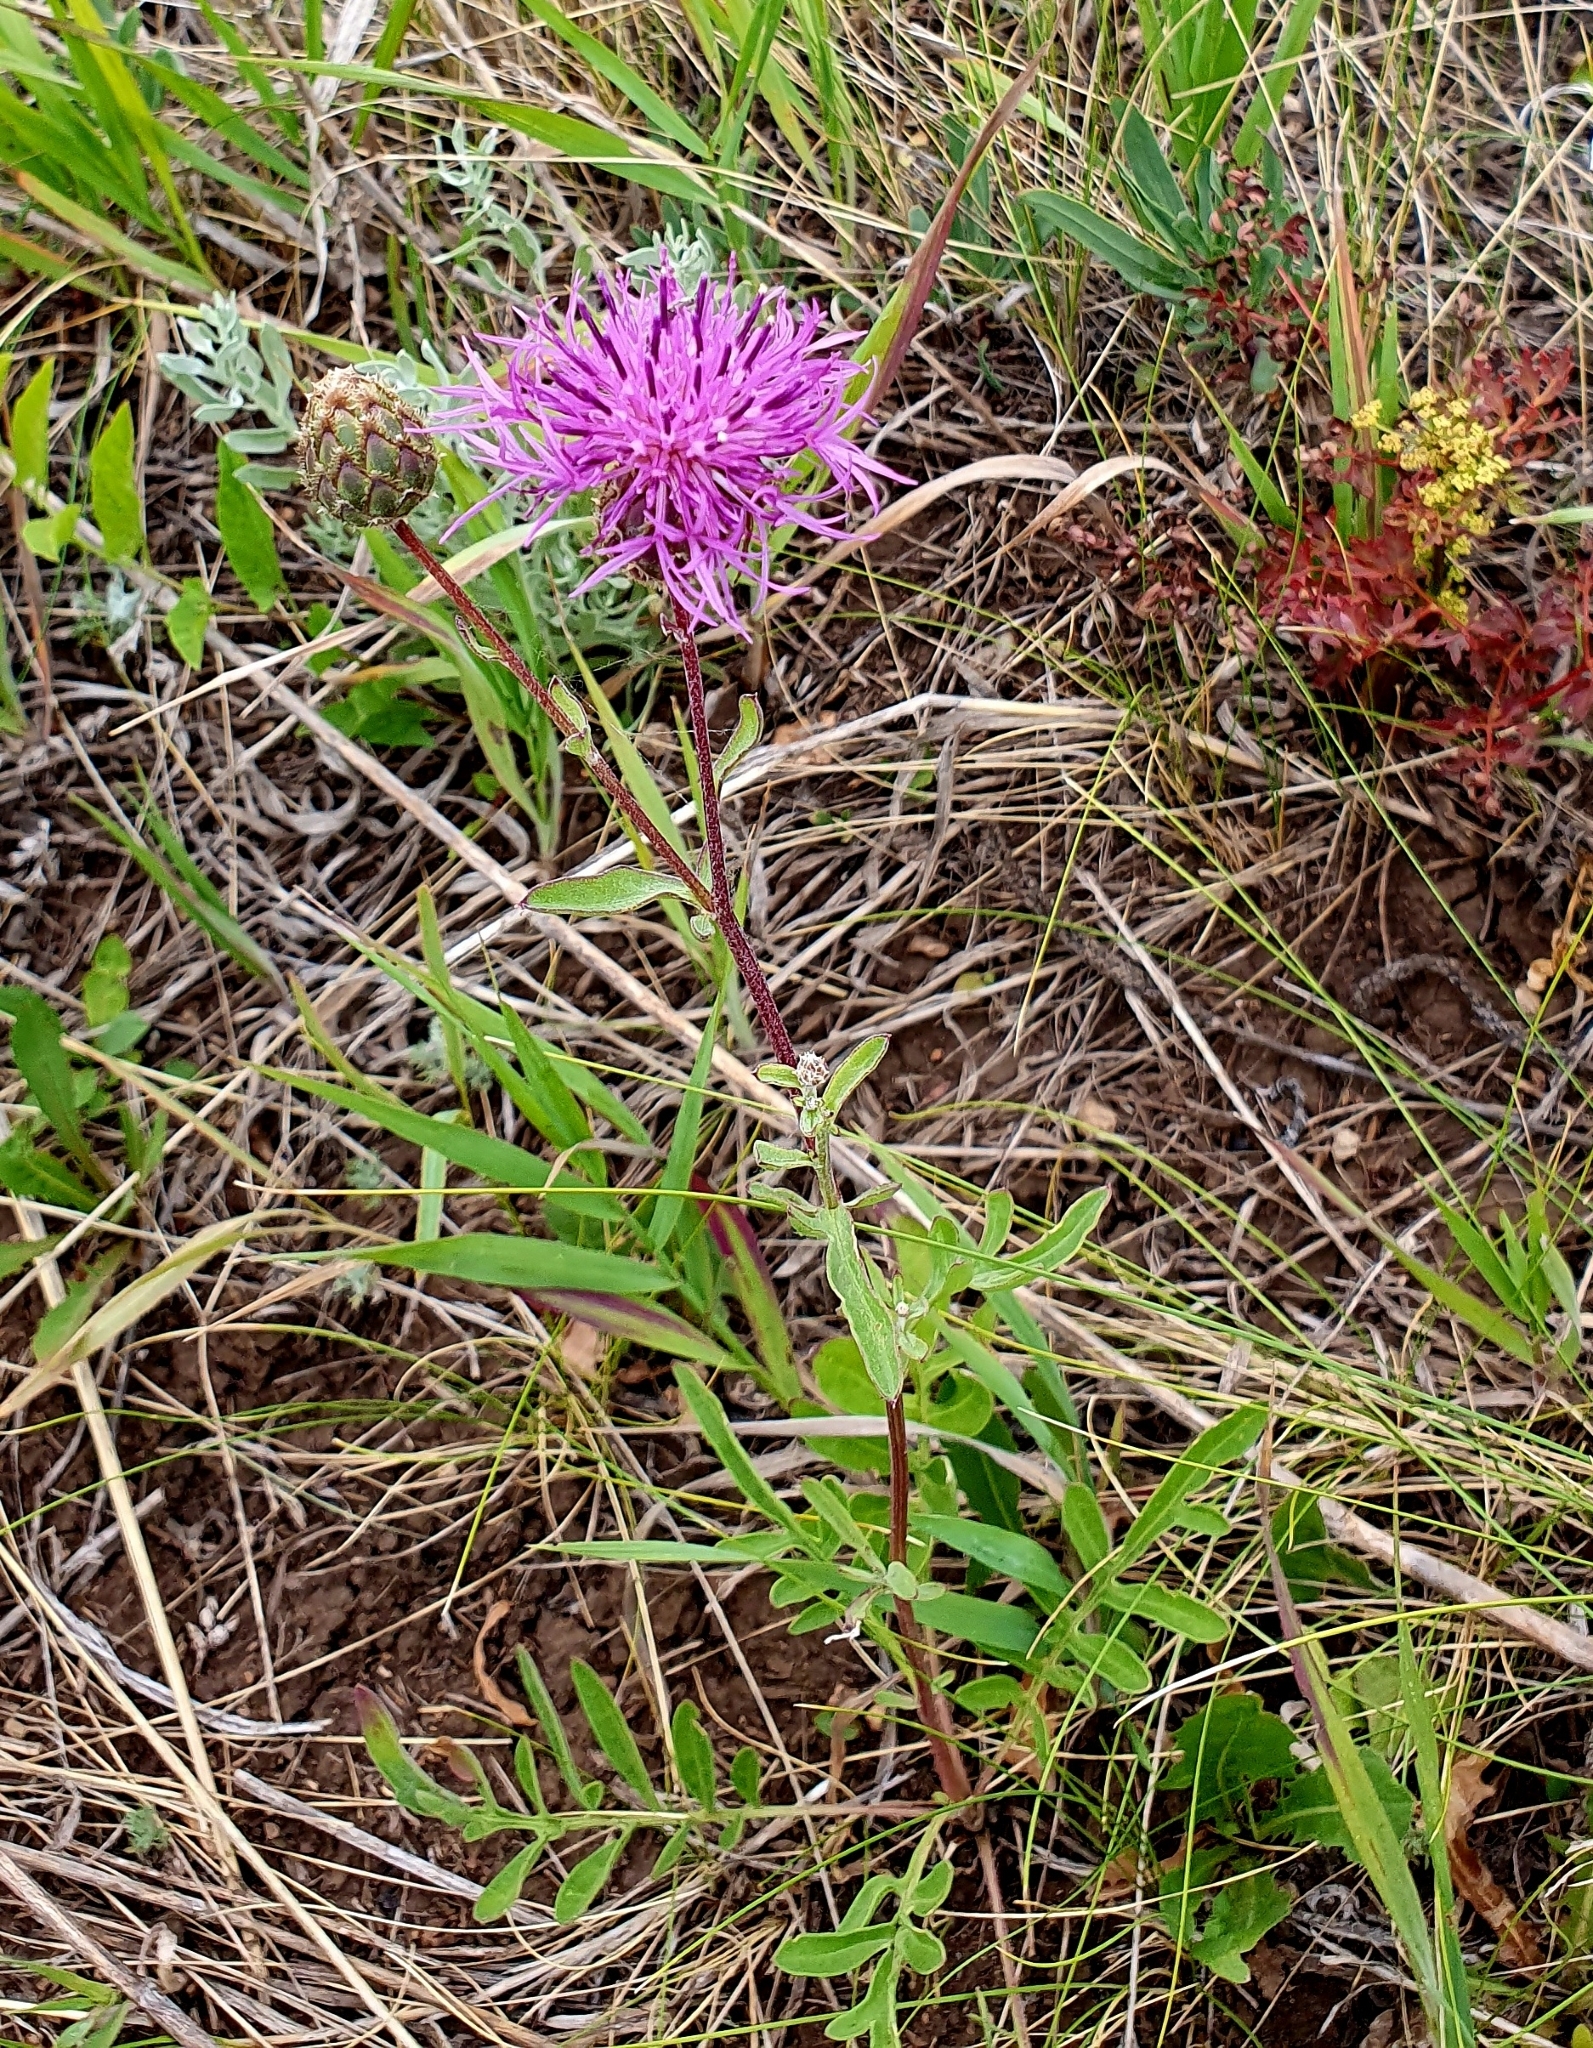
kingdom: Plantae
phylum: Tracheophyta
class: Magnoliopsida
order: Asterales
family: Asteraceae
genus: Centaurea
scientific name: Centaurea scabiosa
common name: Greater knapweed
